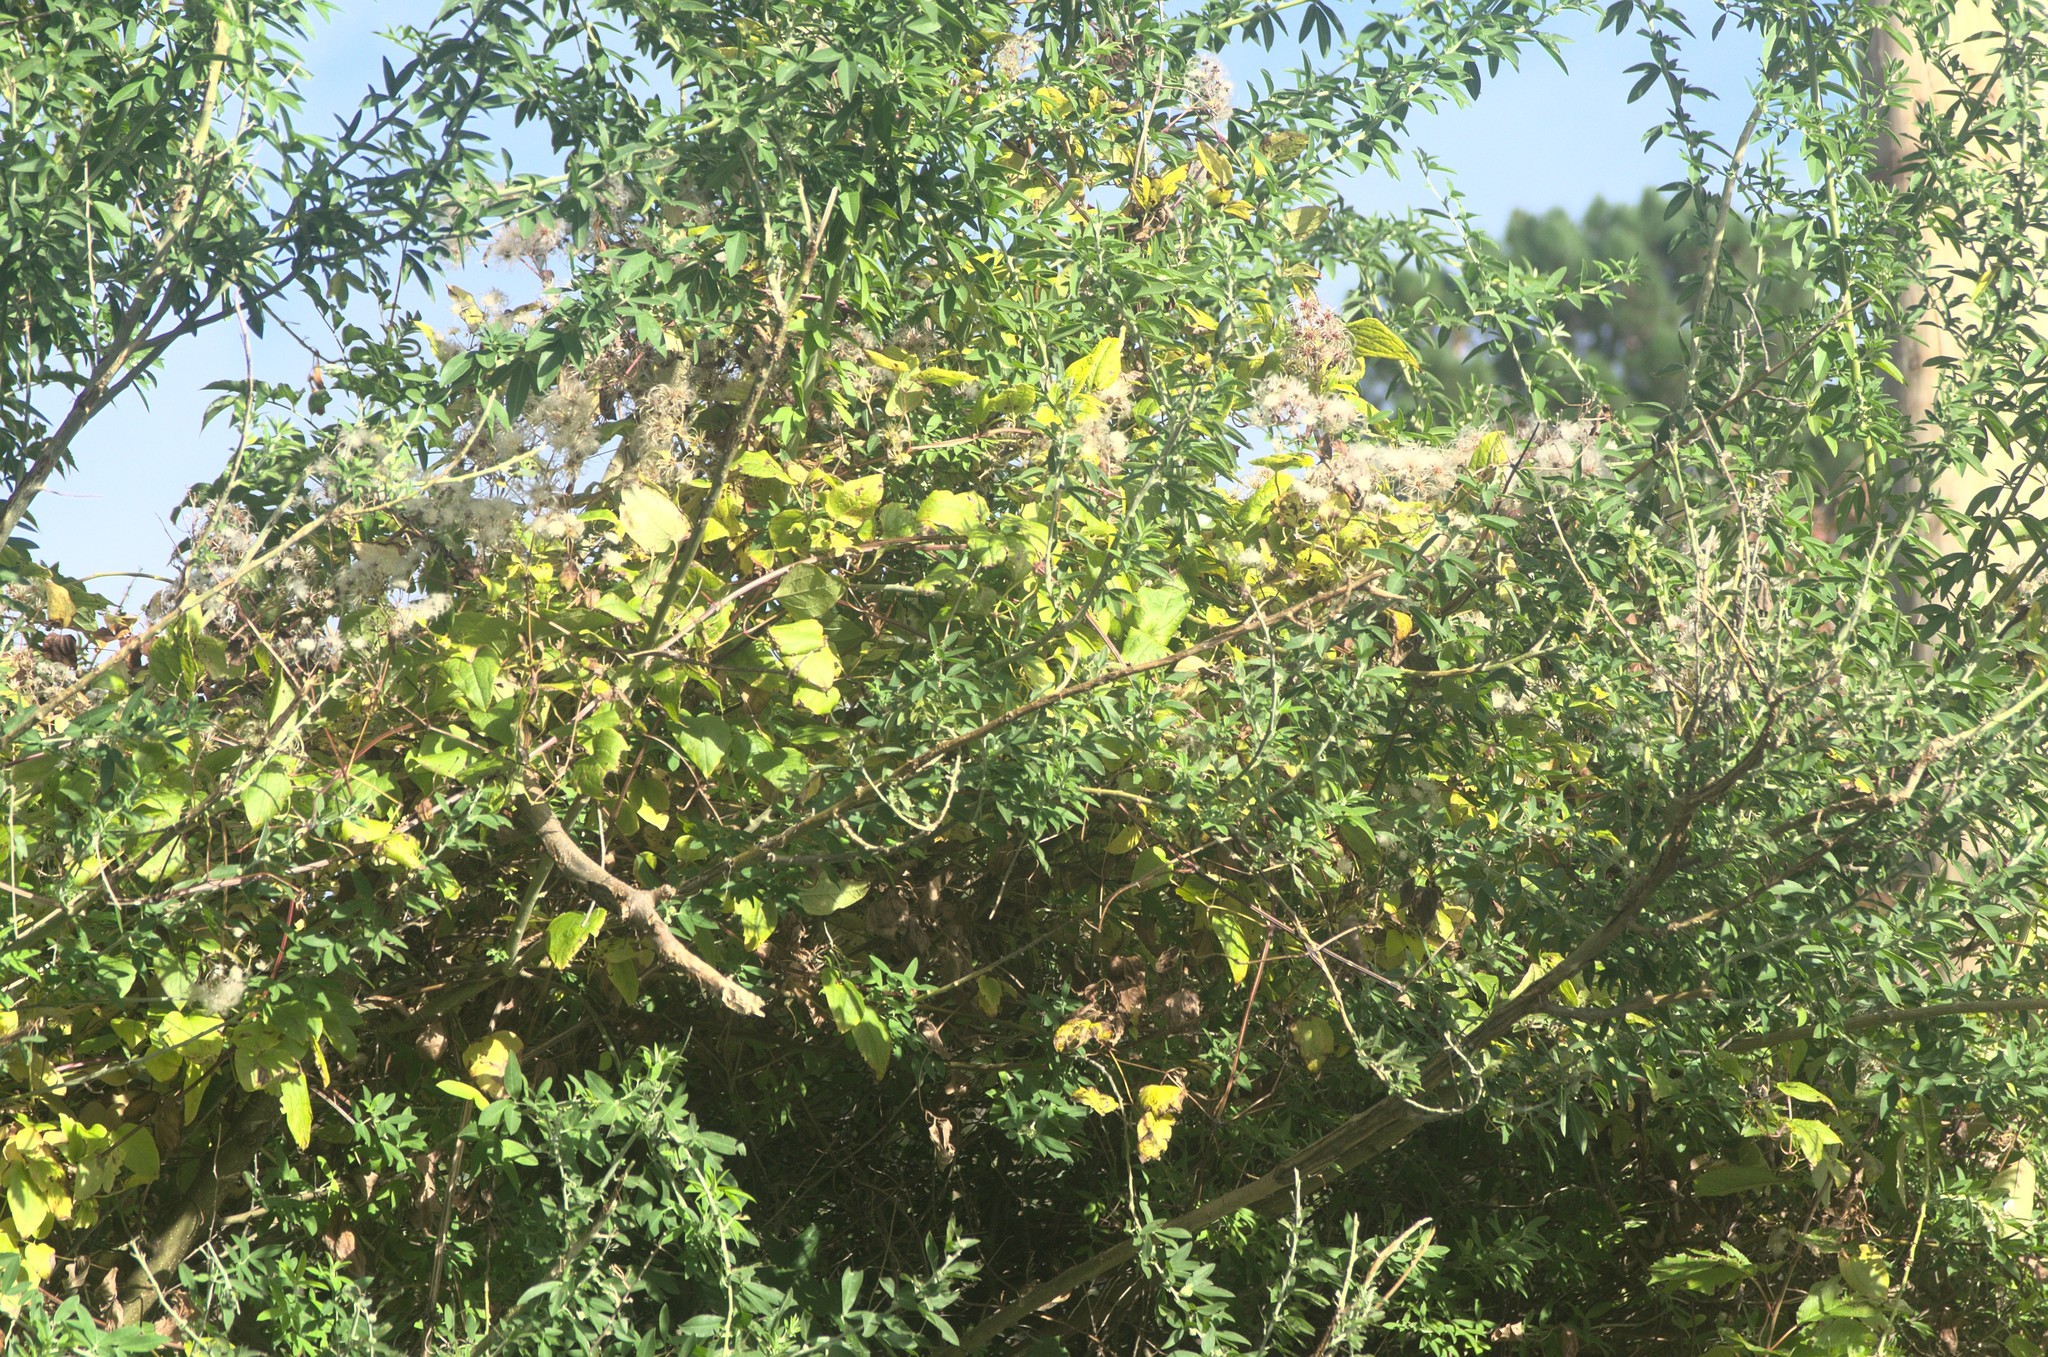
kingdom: Plantae
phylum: Tracheophyta
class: Magnoliopsida
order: Ranunculales
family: Ranunculaceae
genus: Clematis
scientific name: Clematis vitalba
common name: Evergreen clematis
